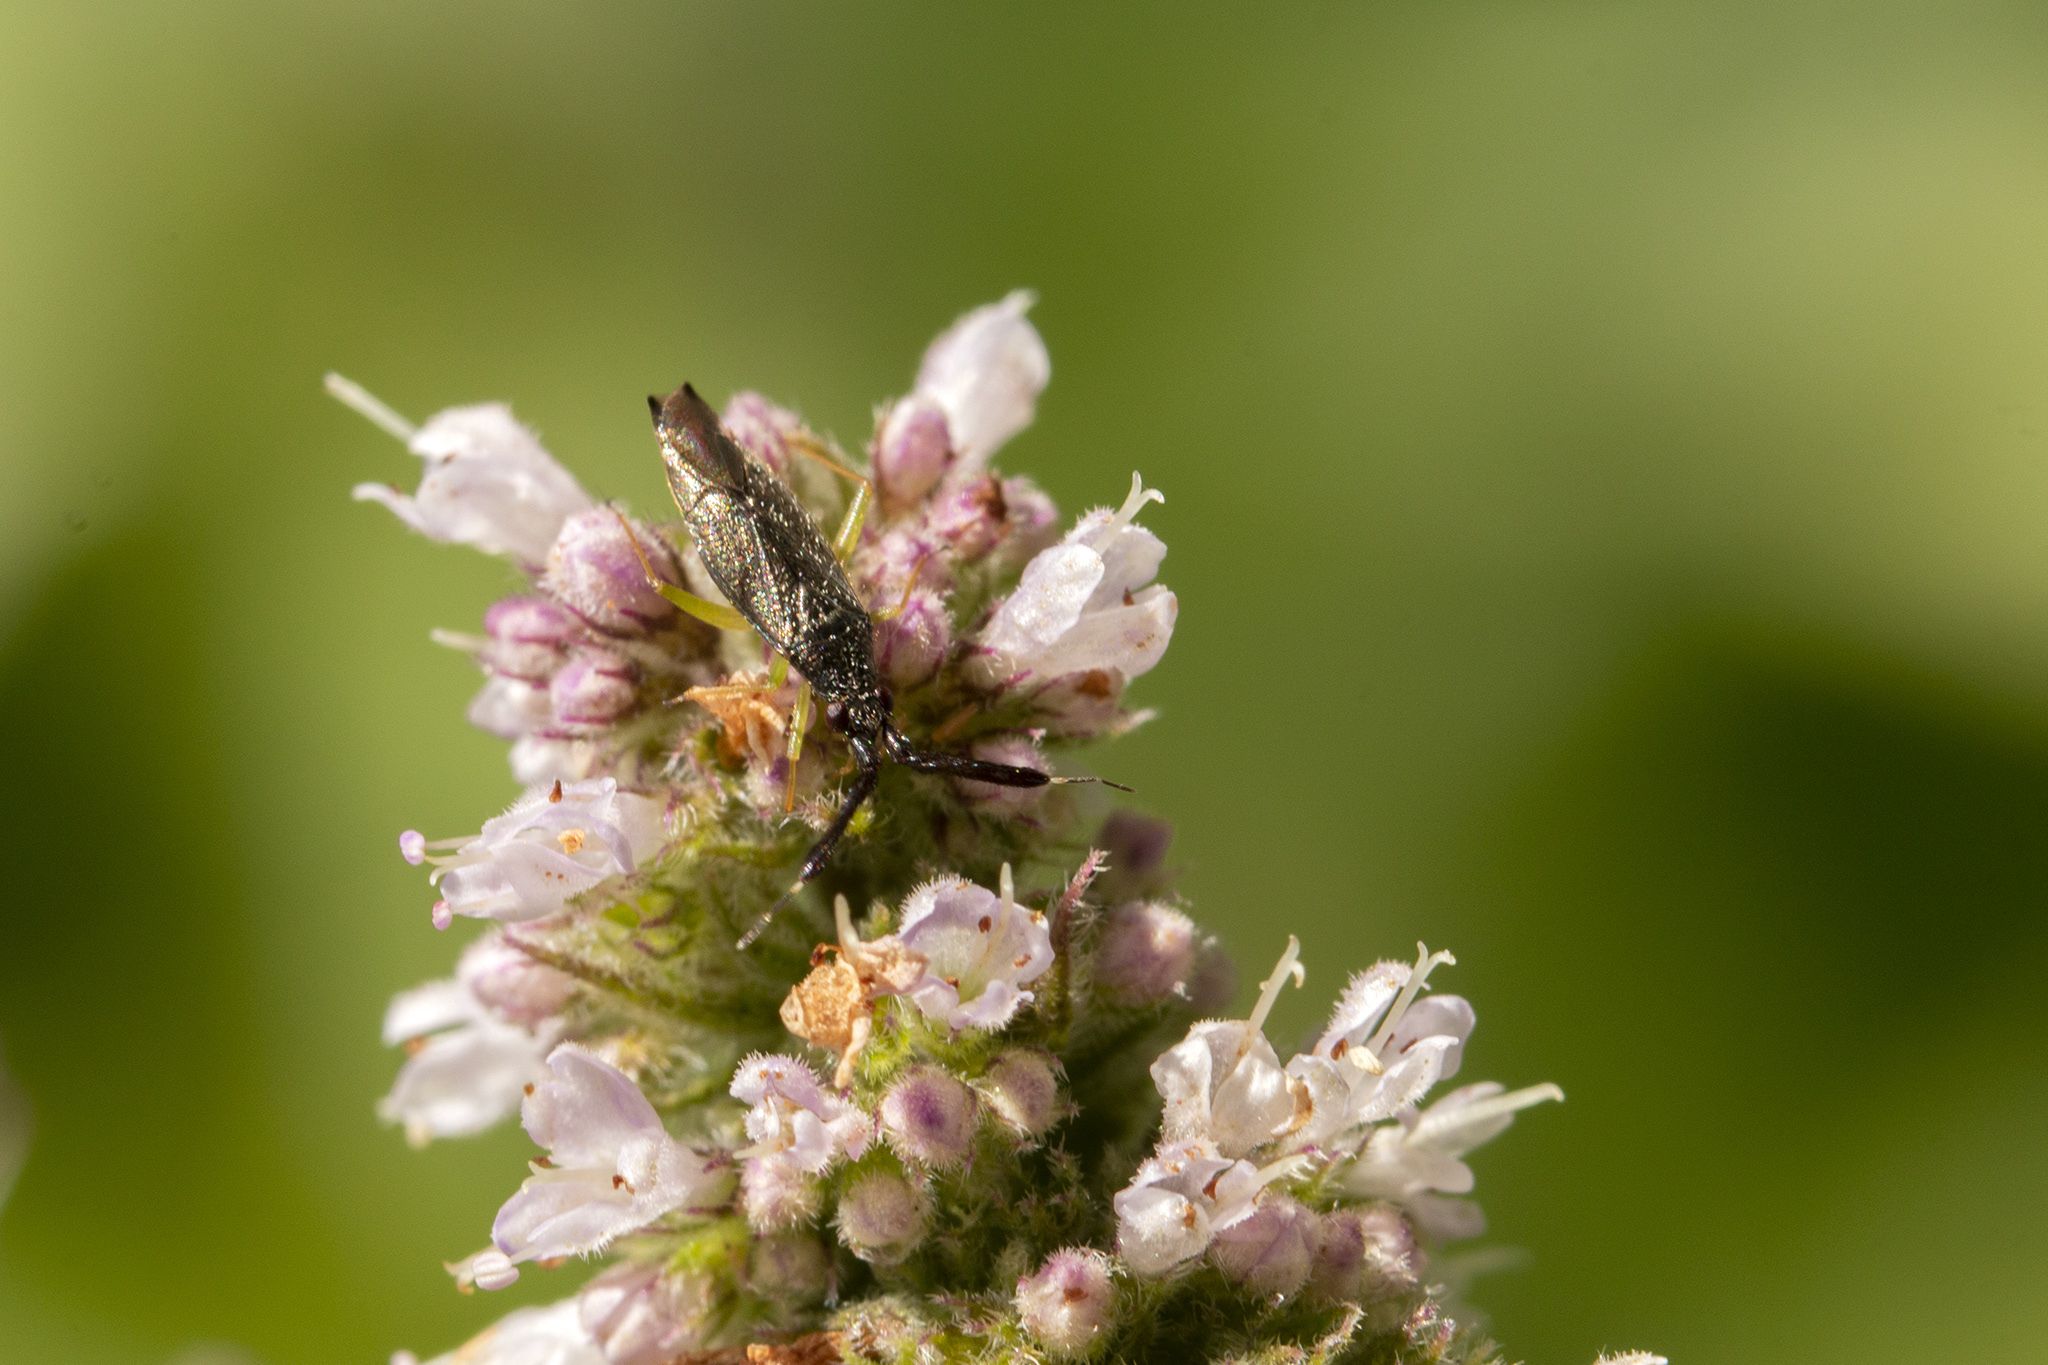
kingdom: Animalia
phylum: Arthropoda
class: Insecta
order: Hemiptera
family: Miridae
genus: Heterotoma
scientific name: Heterotoma planicornis
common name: Plant bug
